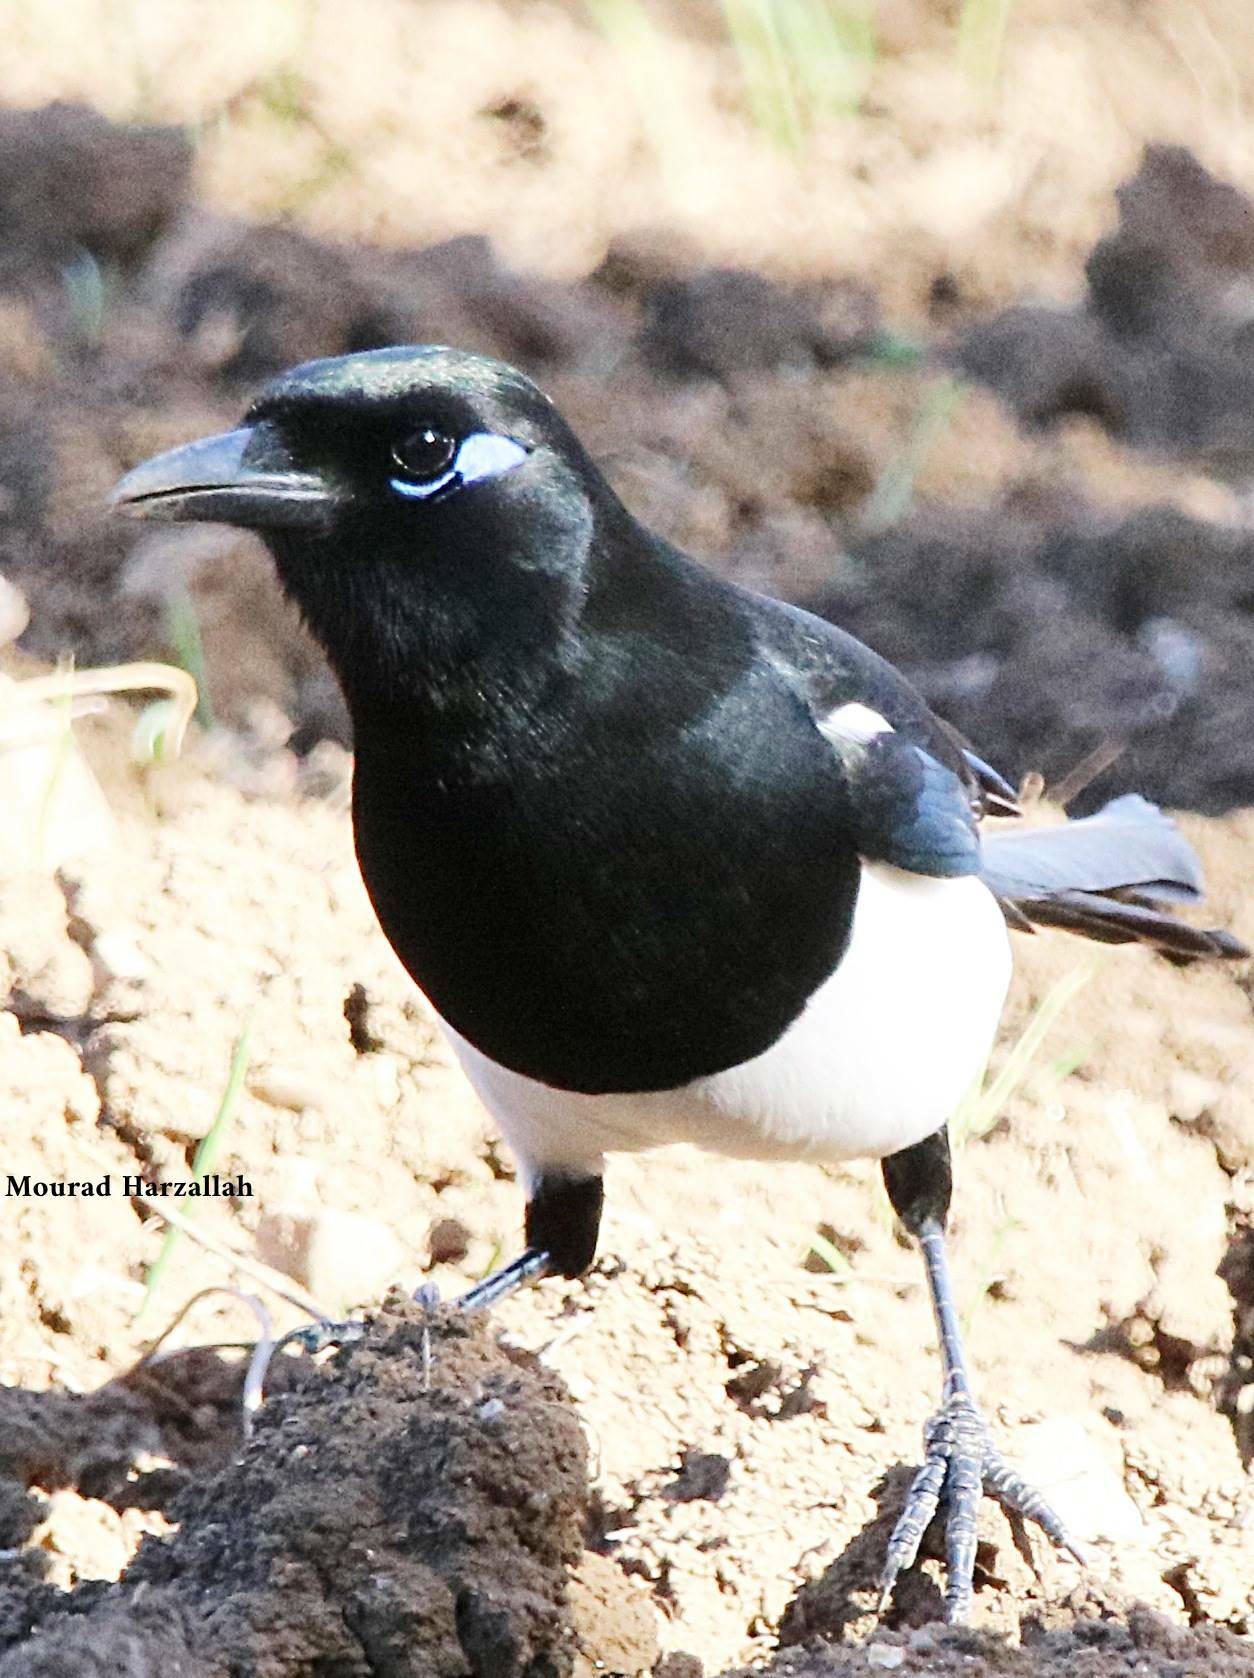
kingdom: Animalia
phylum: Chordata
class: Aves
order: Passeriformes
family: Corvidae
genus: Pica
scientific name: Pica mauritanica
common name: Maghreb magpie
